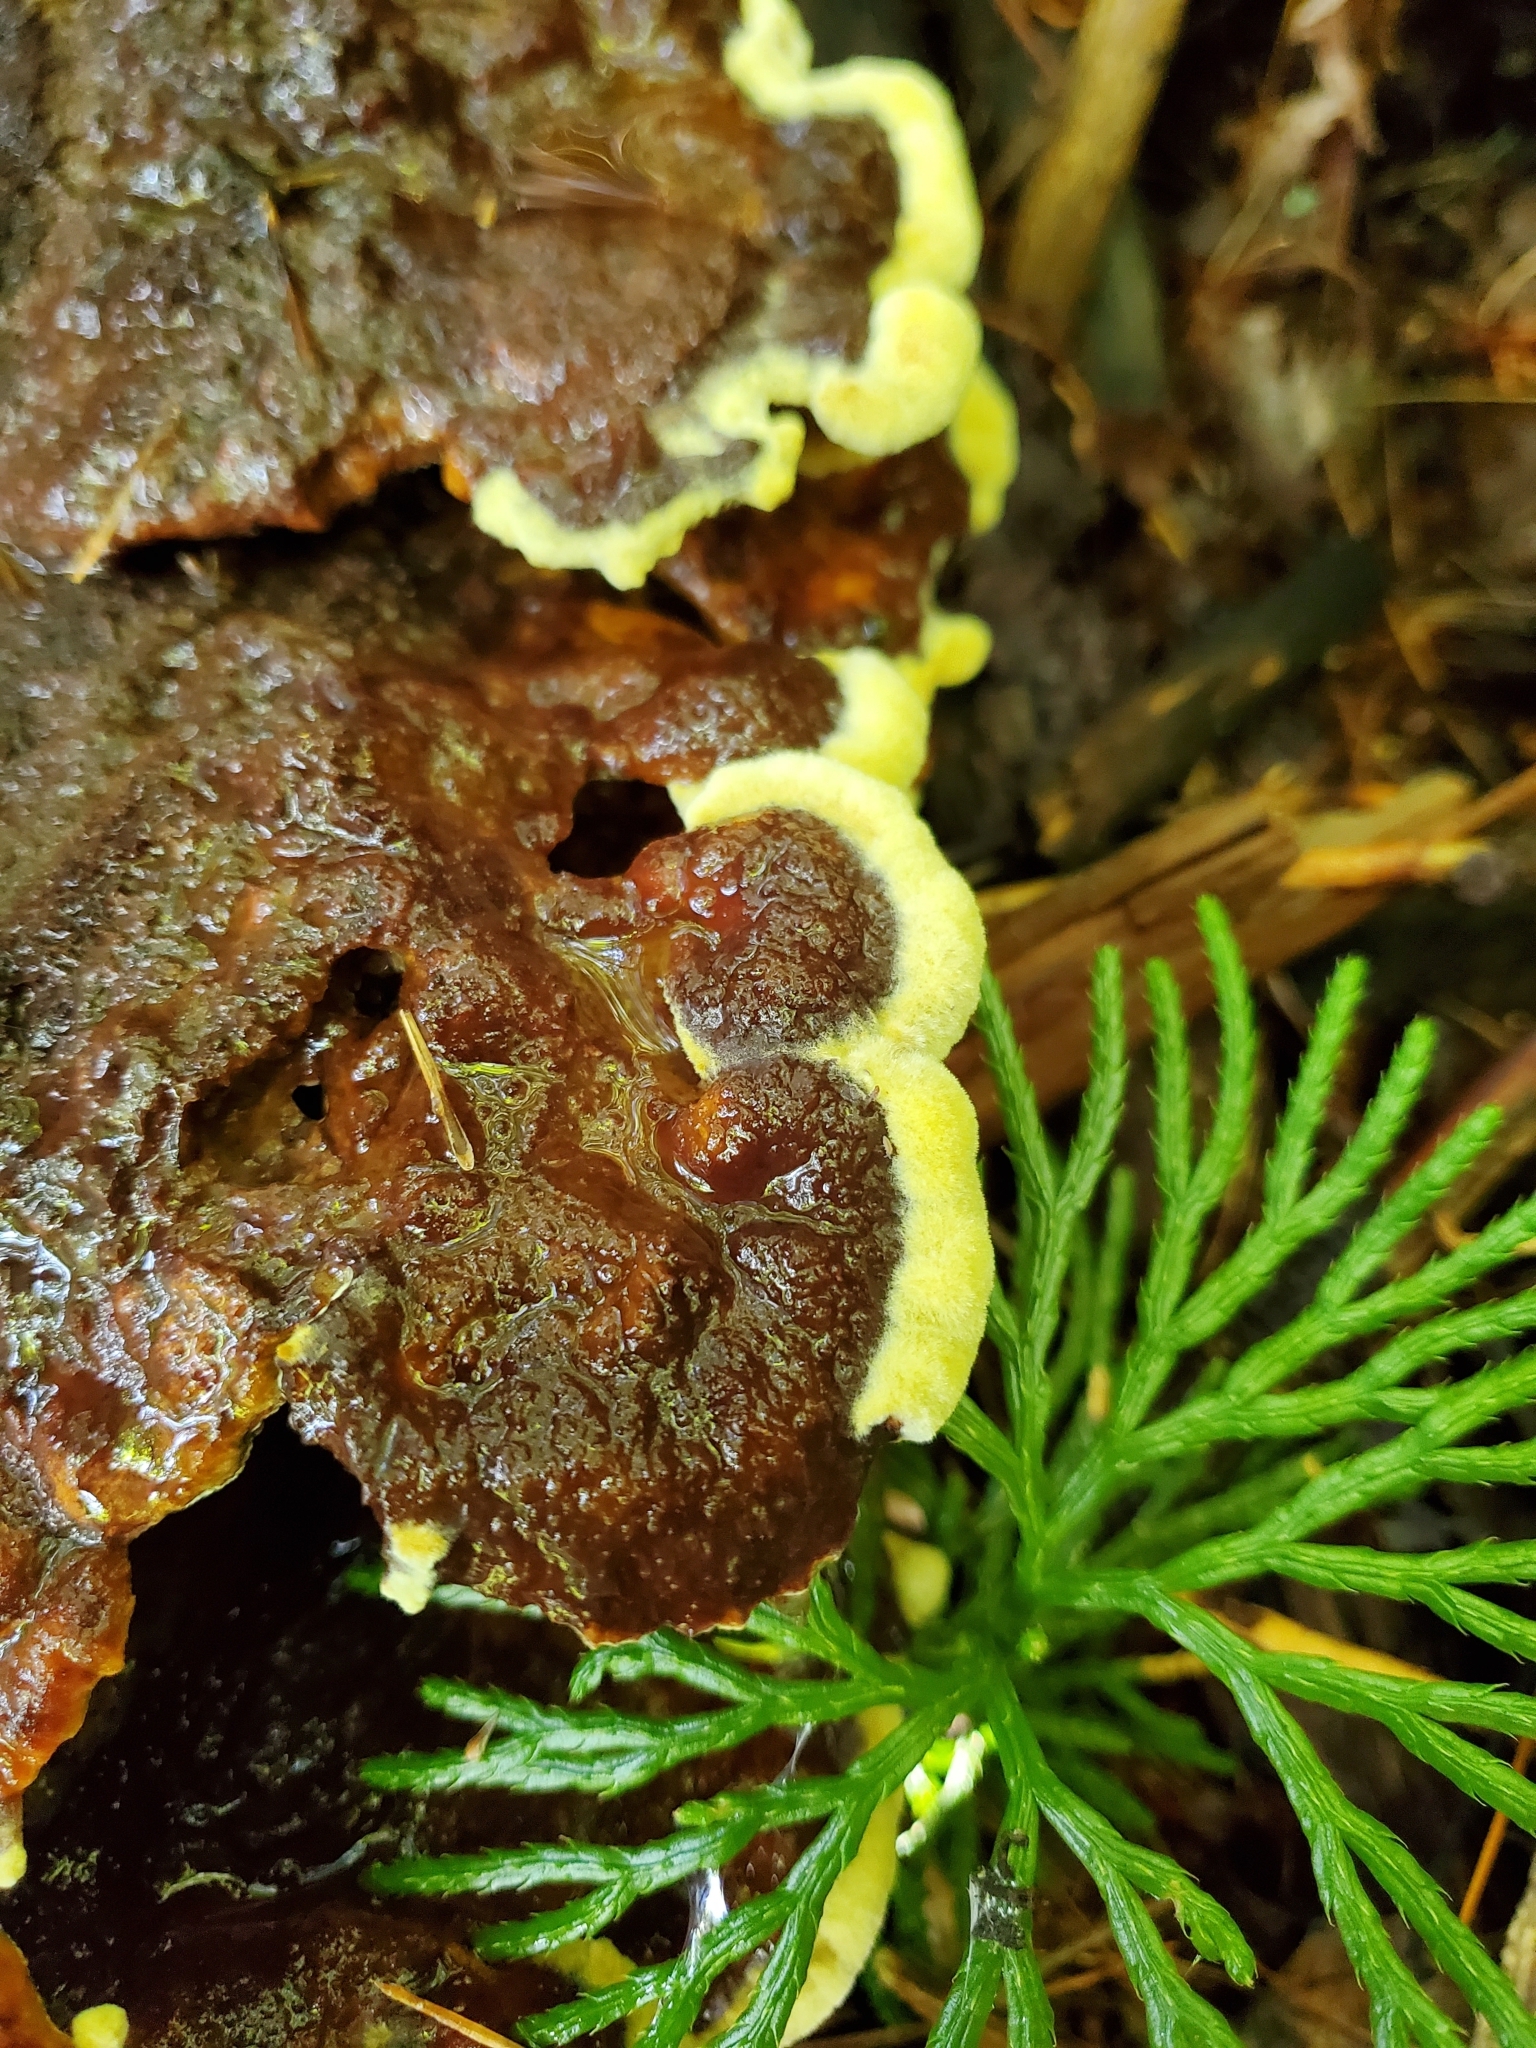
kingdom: Fungi
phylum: Basidiomycota
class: Agaricomycetes
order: Polyporales
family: Laetiporaceae
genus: Phaeolus
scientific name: Phaeolus schweinitzii
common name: Dyer's mazegill
